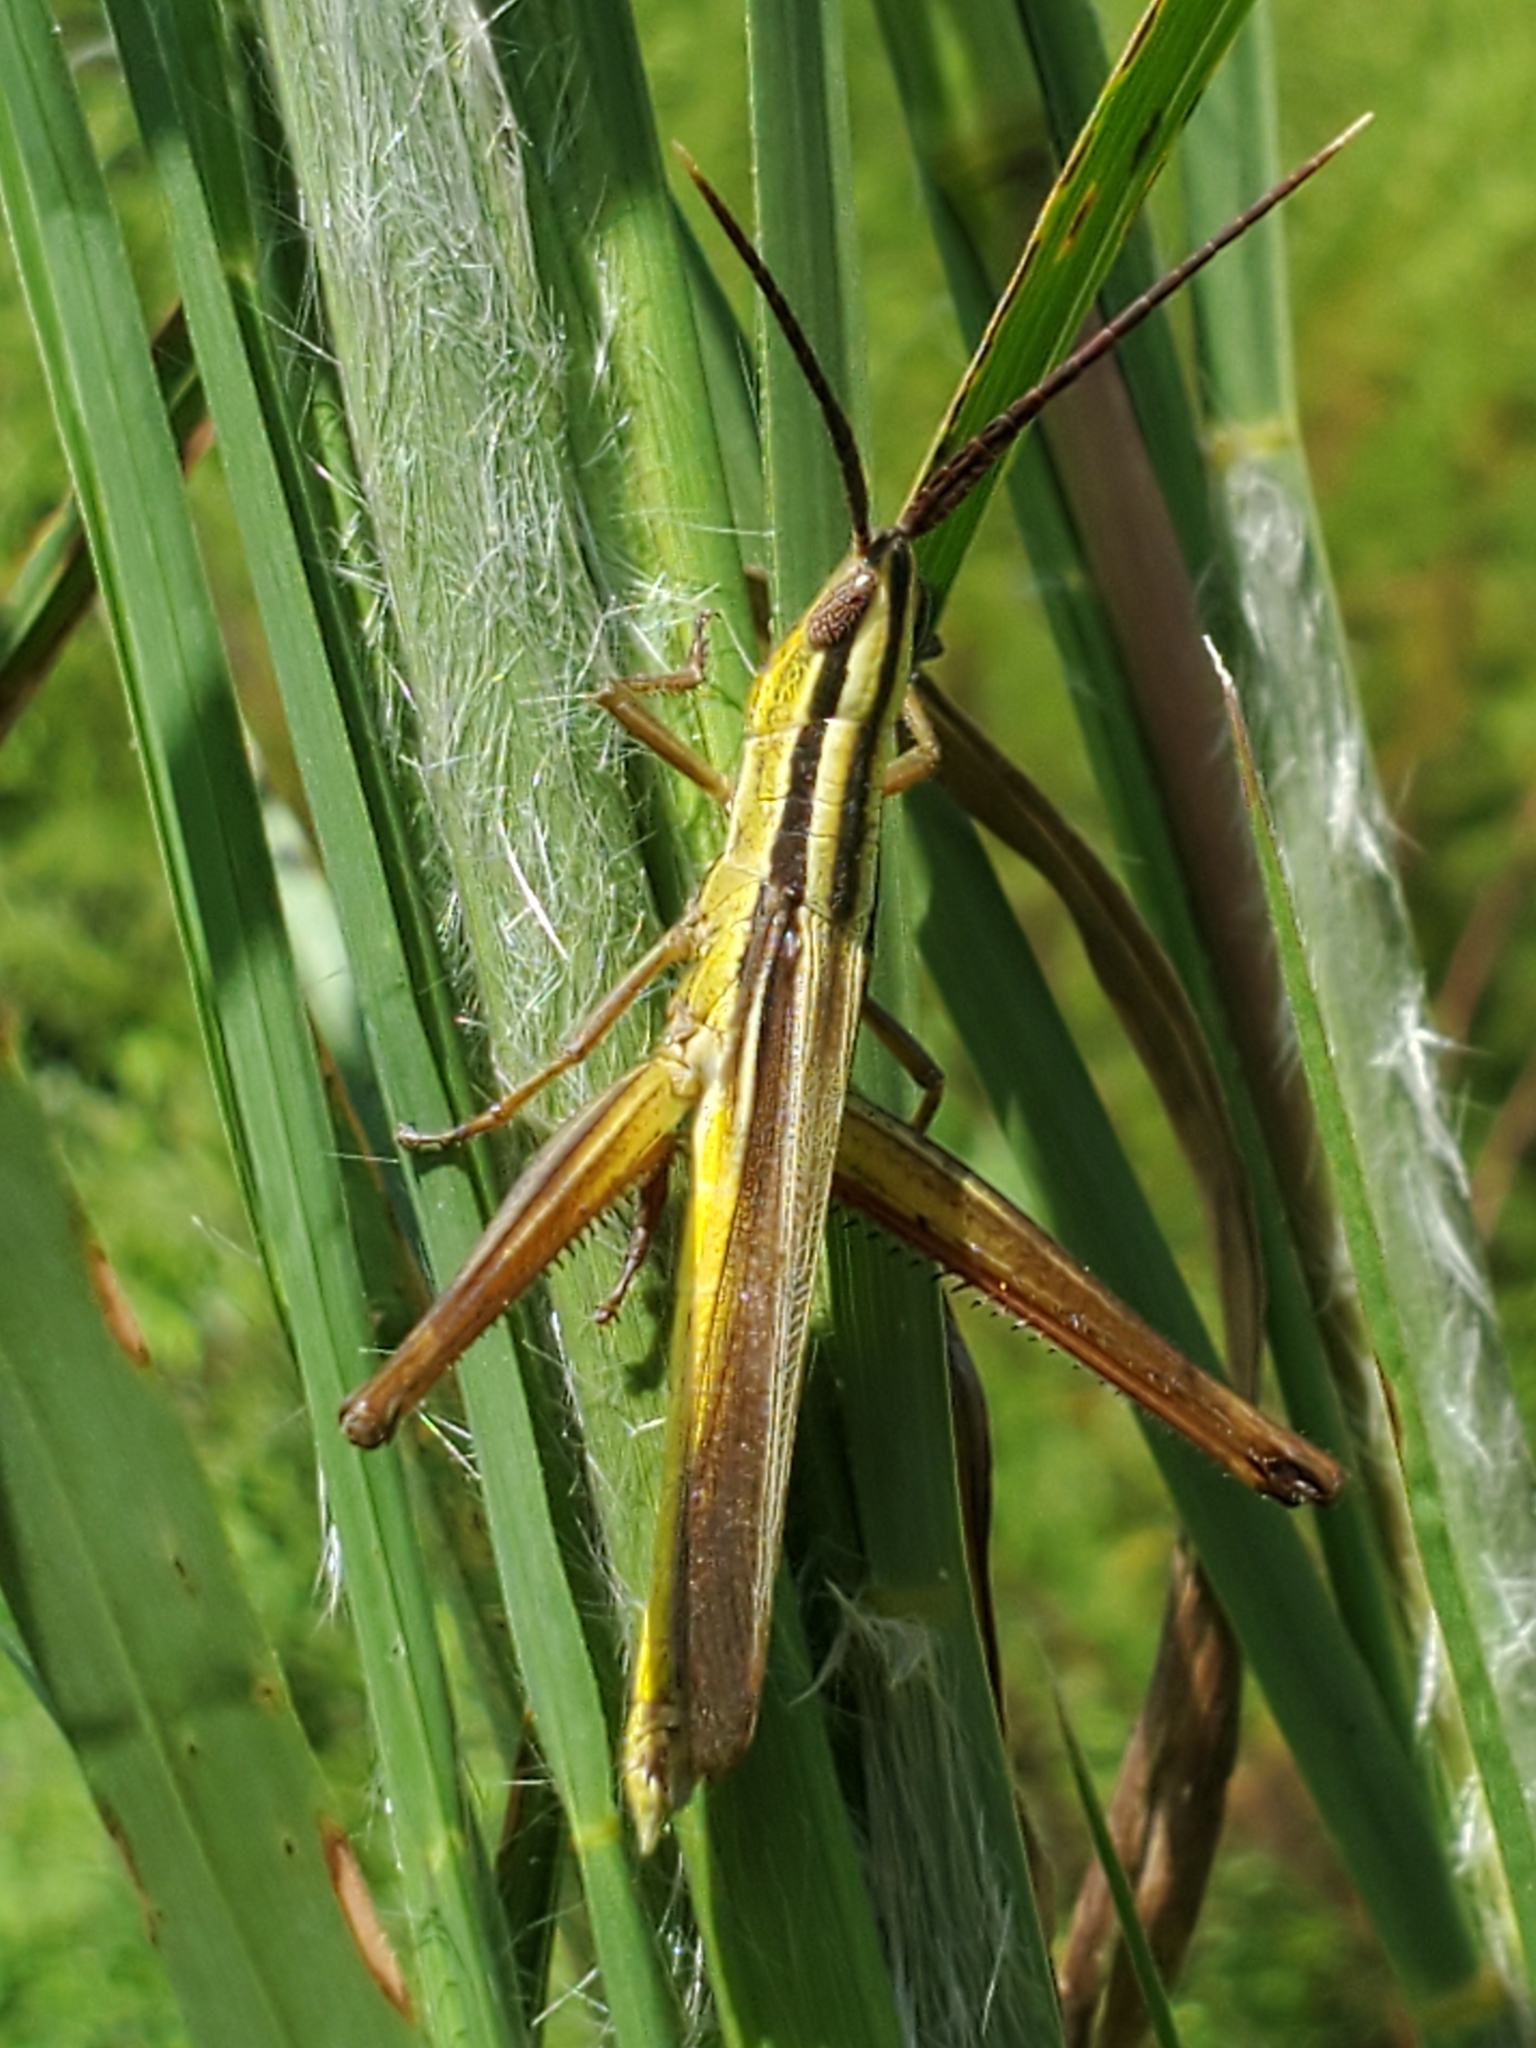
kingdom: Animalia
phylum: Arthropoda
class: Insecta
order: Orthoptera
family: Acrididae
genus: Mermiria
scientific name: Mermiria intertexta
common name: Eastern mermiria grasshopper
